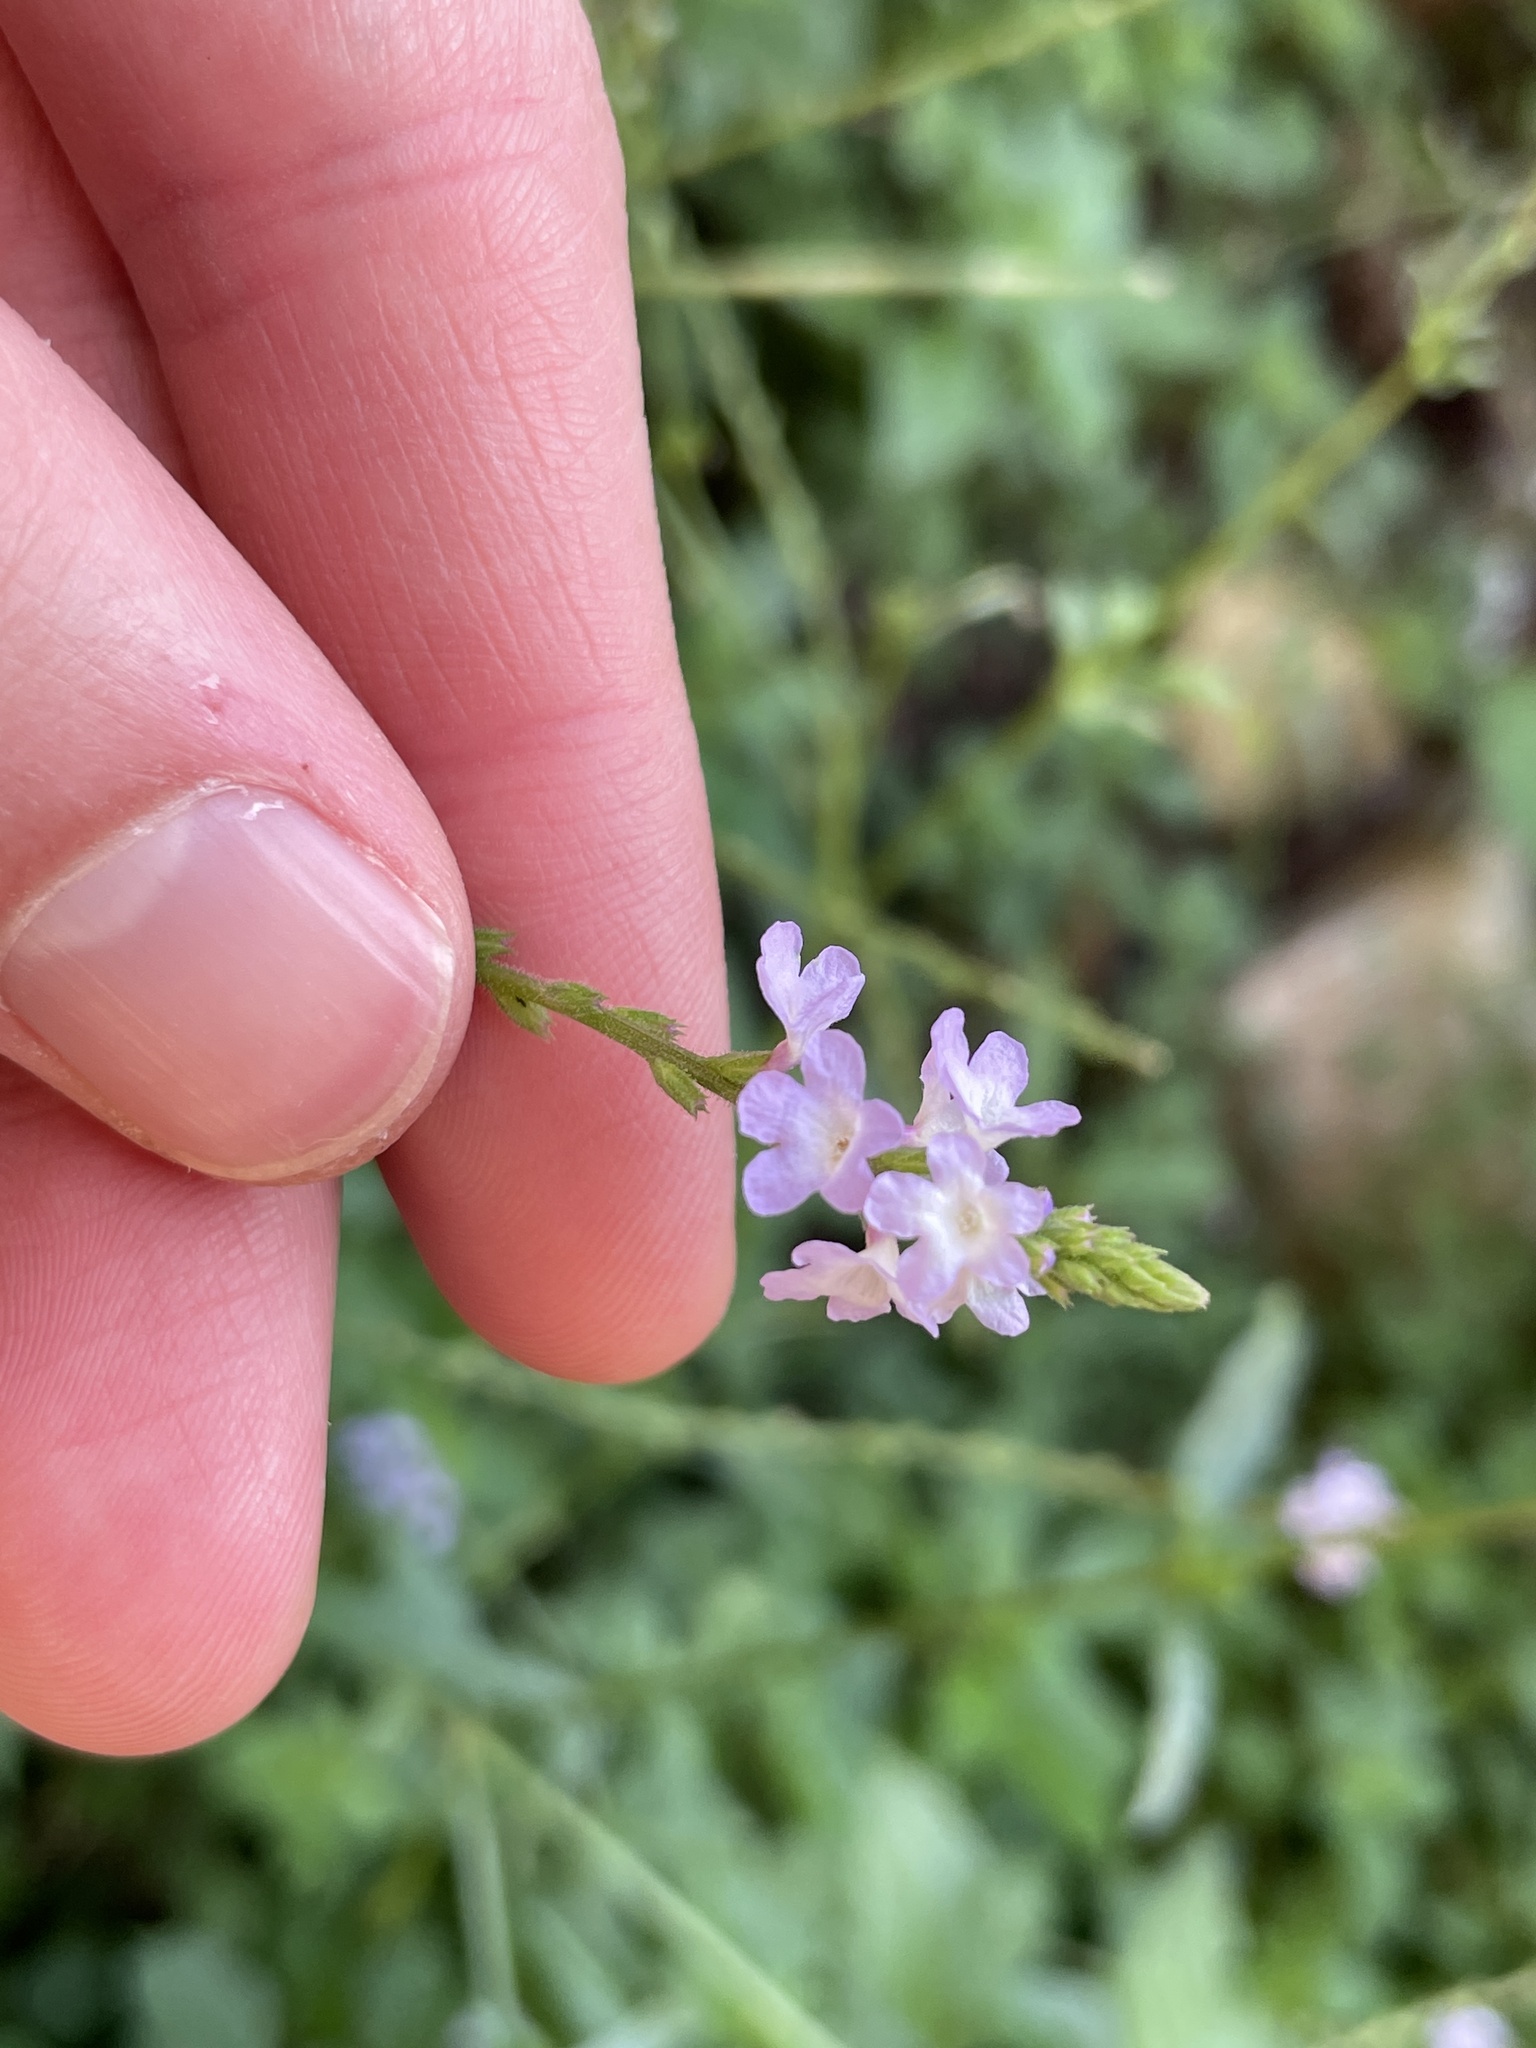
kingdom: Plantae
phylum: Tracheophyta
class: Magnoliopsida
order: Lamiales
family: Verbenaceae
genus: Verbena
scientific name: Verbena officinalis
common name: Vervain
